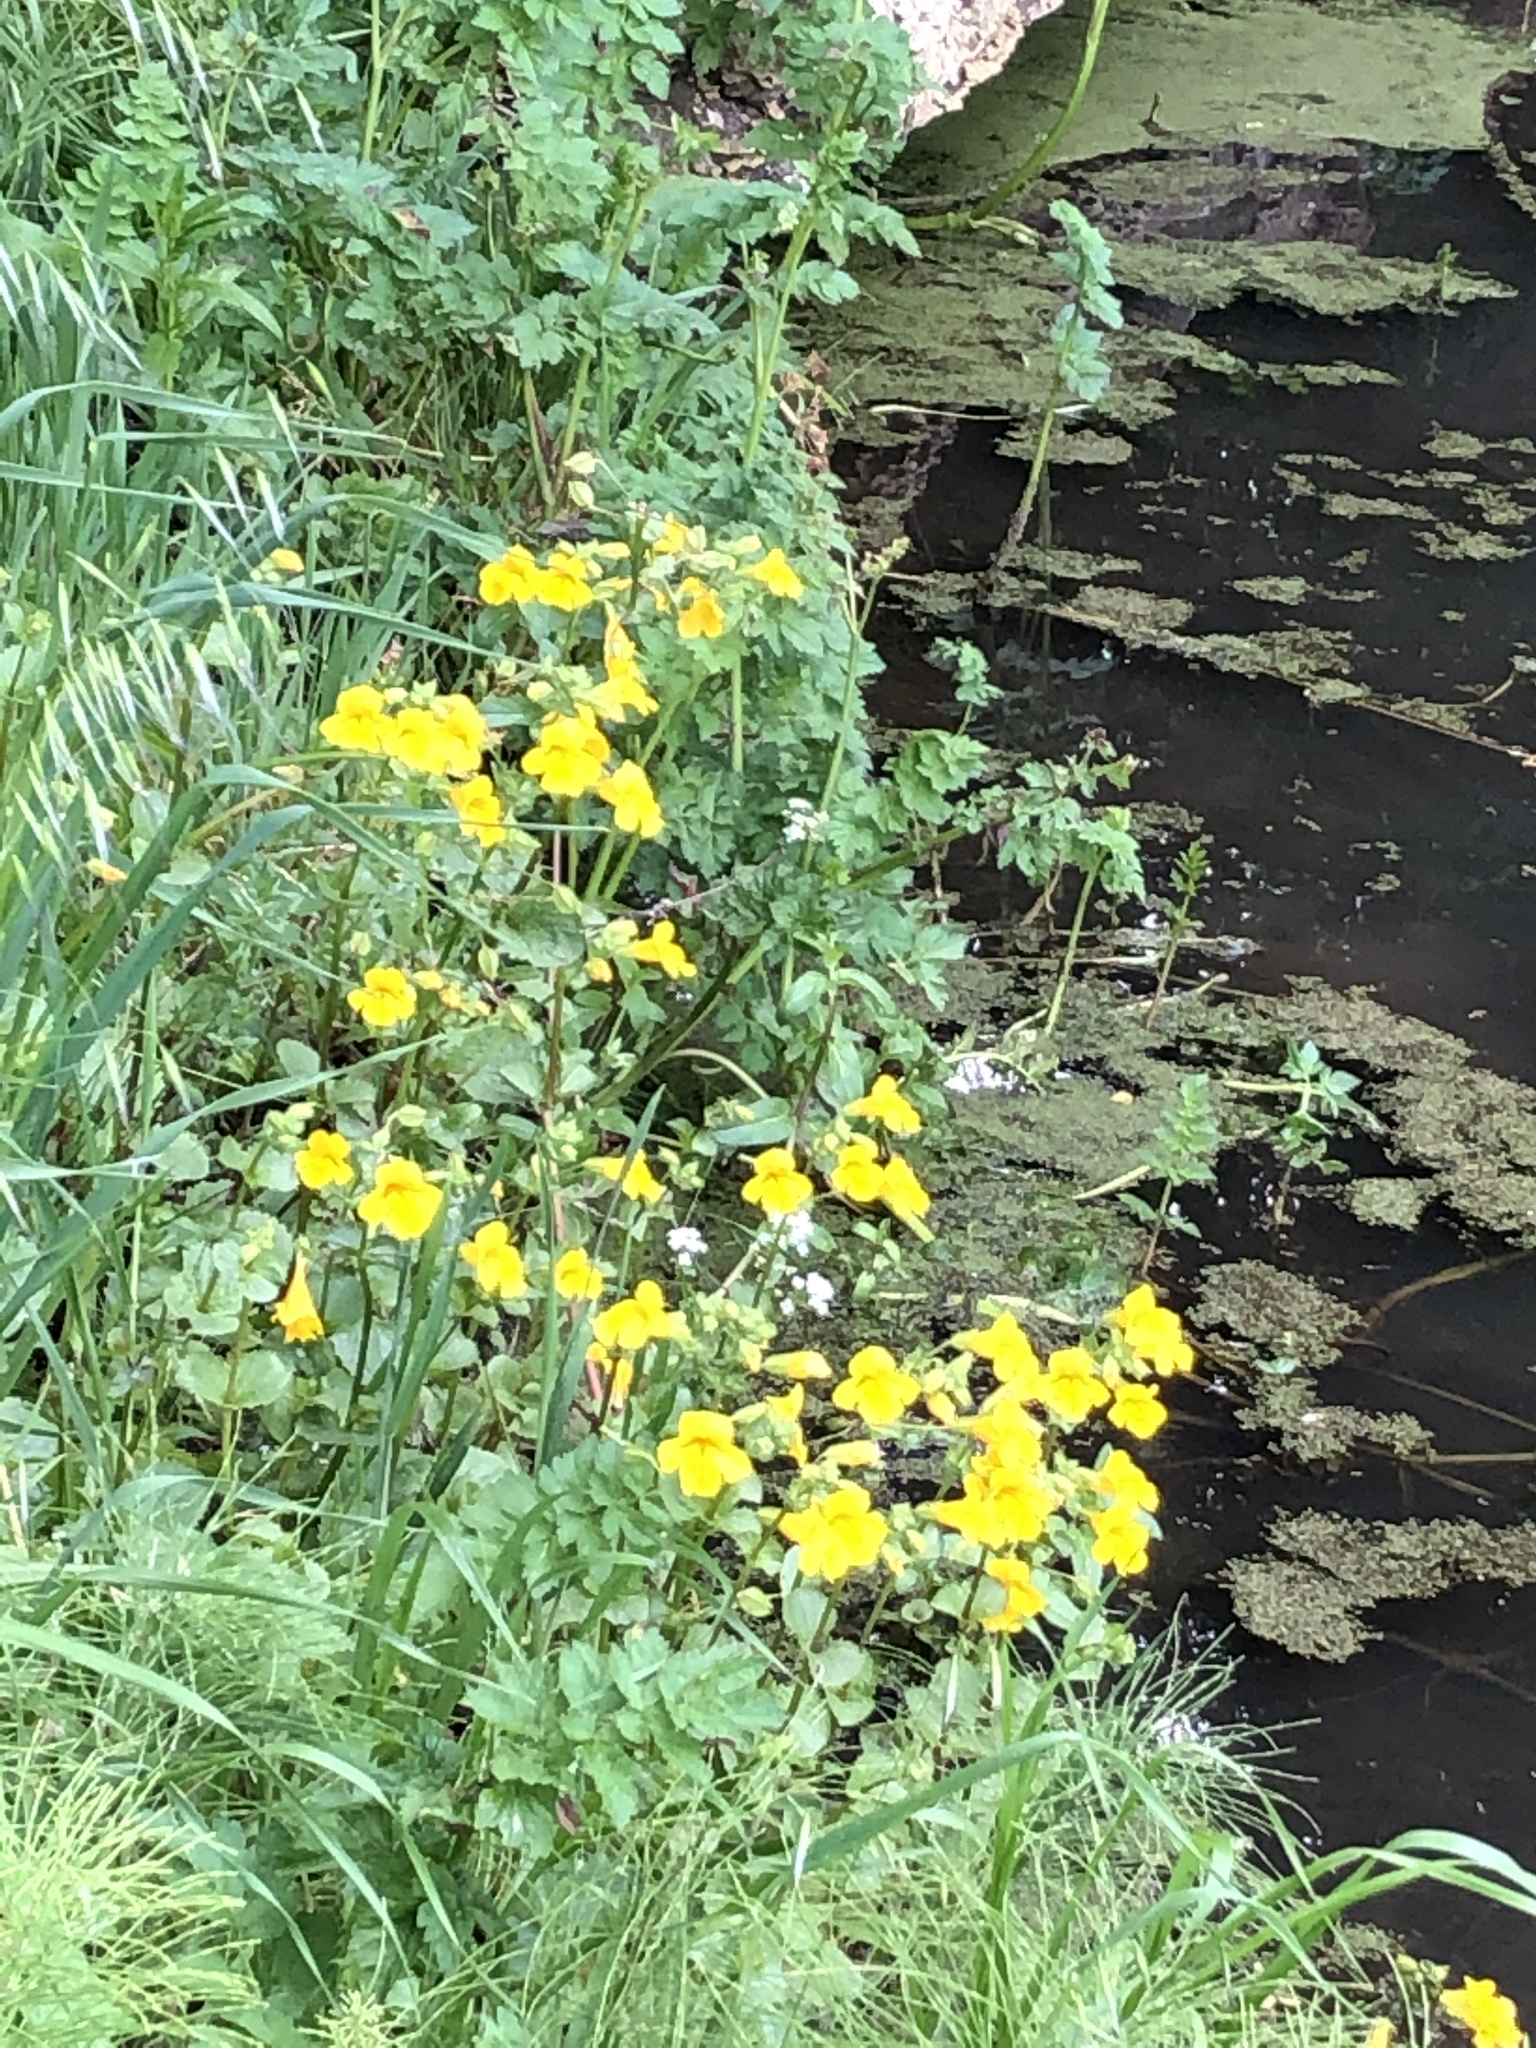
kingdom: Plantae
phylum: Tracheophyta
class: Magnoliopsida
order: Lamiales
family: Phrymaceae
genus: Erythranthe
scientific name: Erythranthe guttata
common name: Monkeyflower
